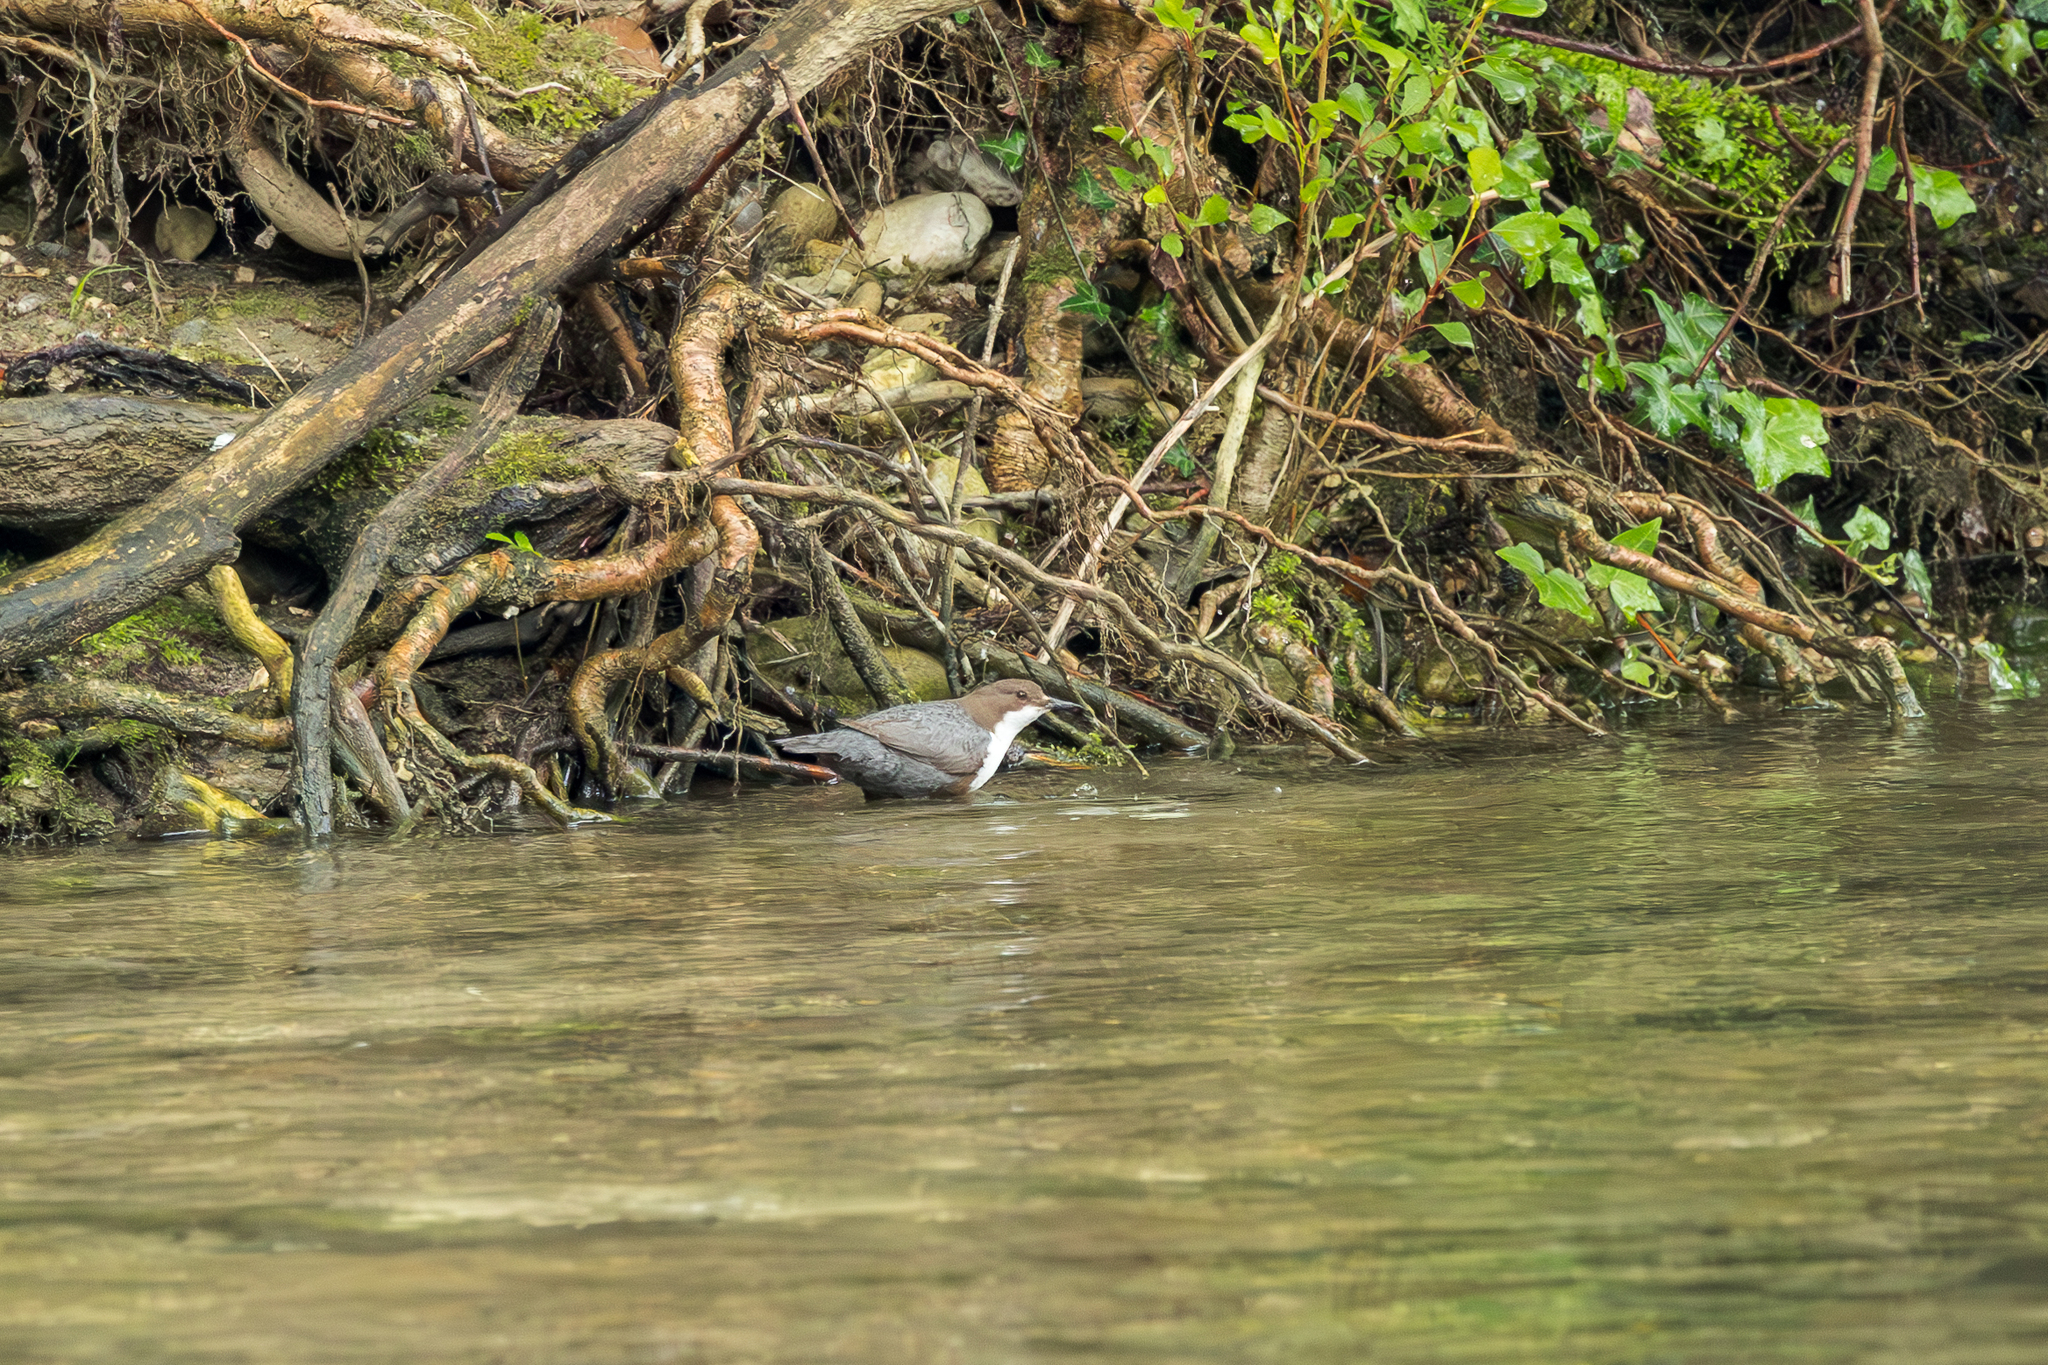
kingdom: Animalia
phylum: Chordata
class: Aves
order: Passeriformes
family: Cinclidae
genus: Cinclus
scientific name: Cinclus cinclus
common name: White-throated dipper
